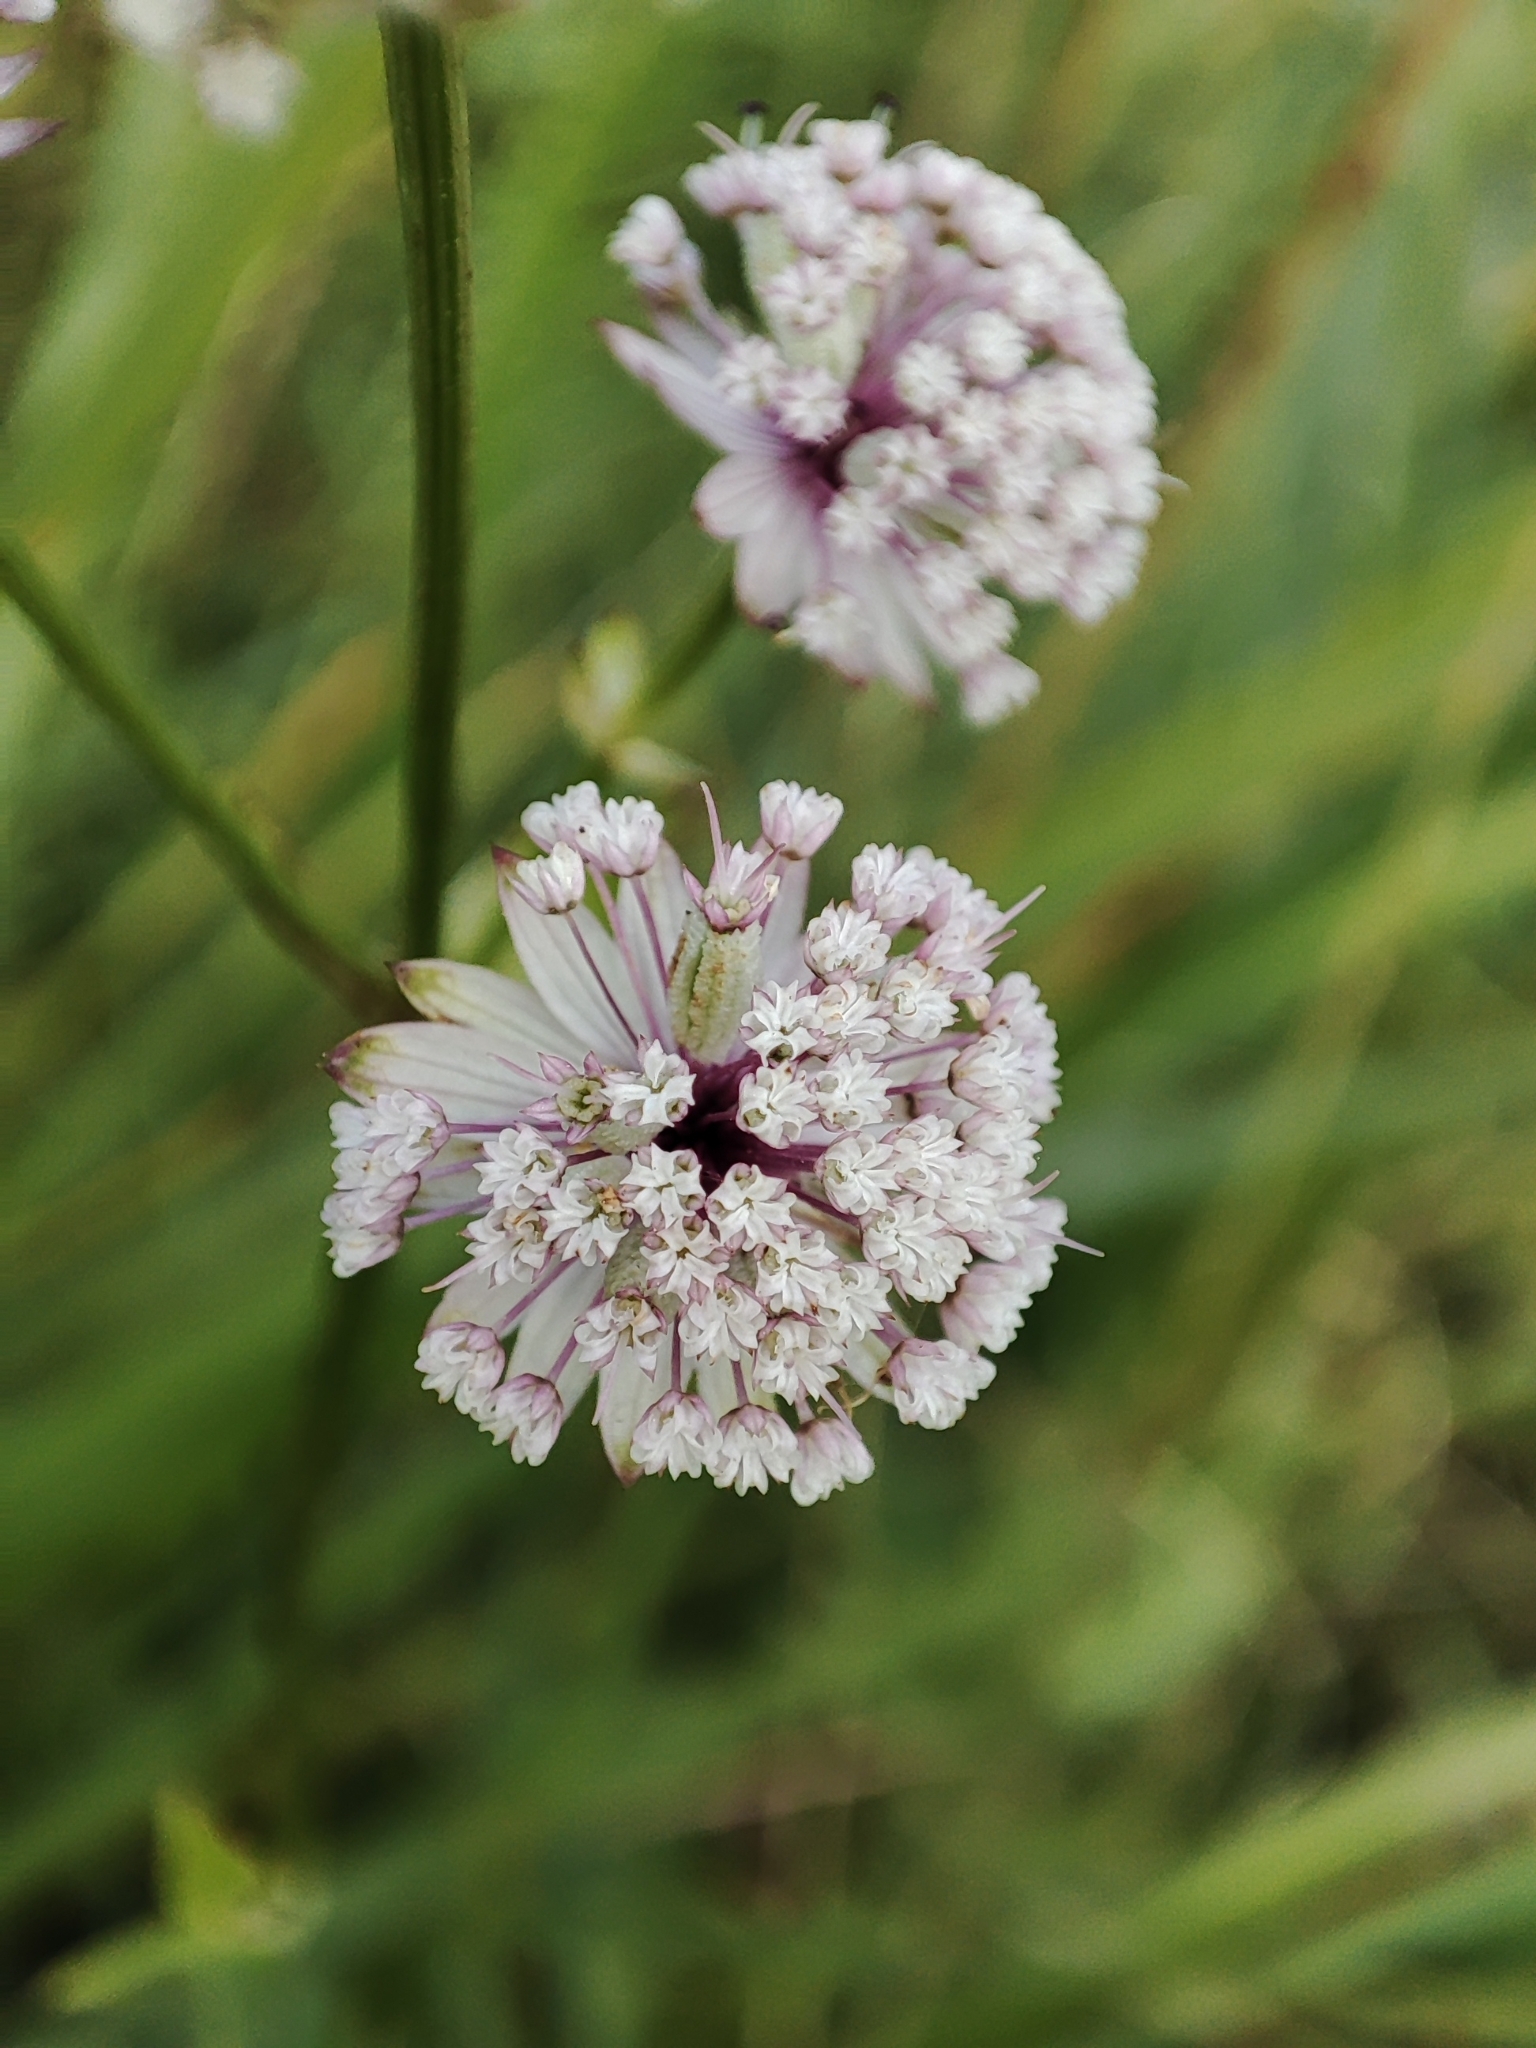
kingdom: Plantae
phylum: Tracheophyta
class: Magnoliopsida
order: Apiales
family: Apiaceae
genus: Astrantia
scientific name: Astrantia major
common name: Greater masterwort
